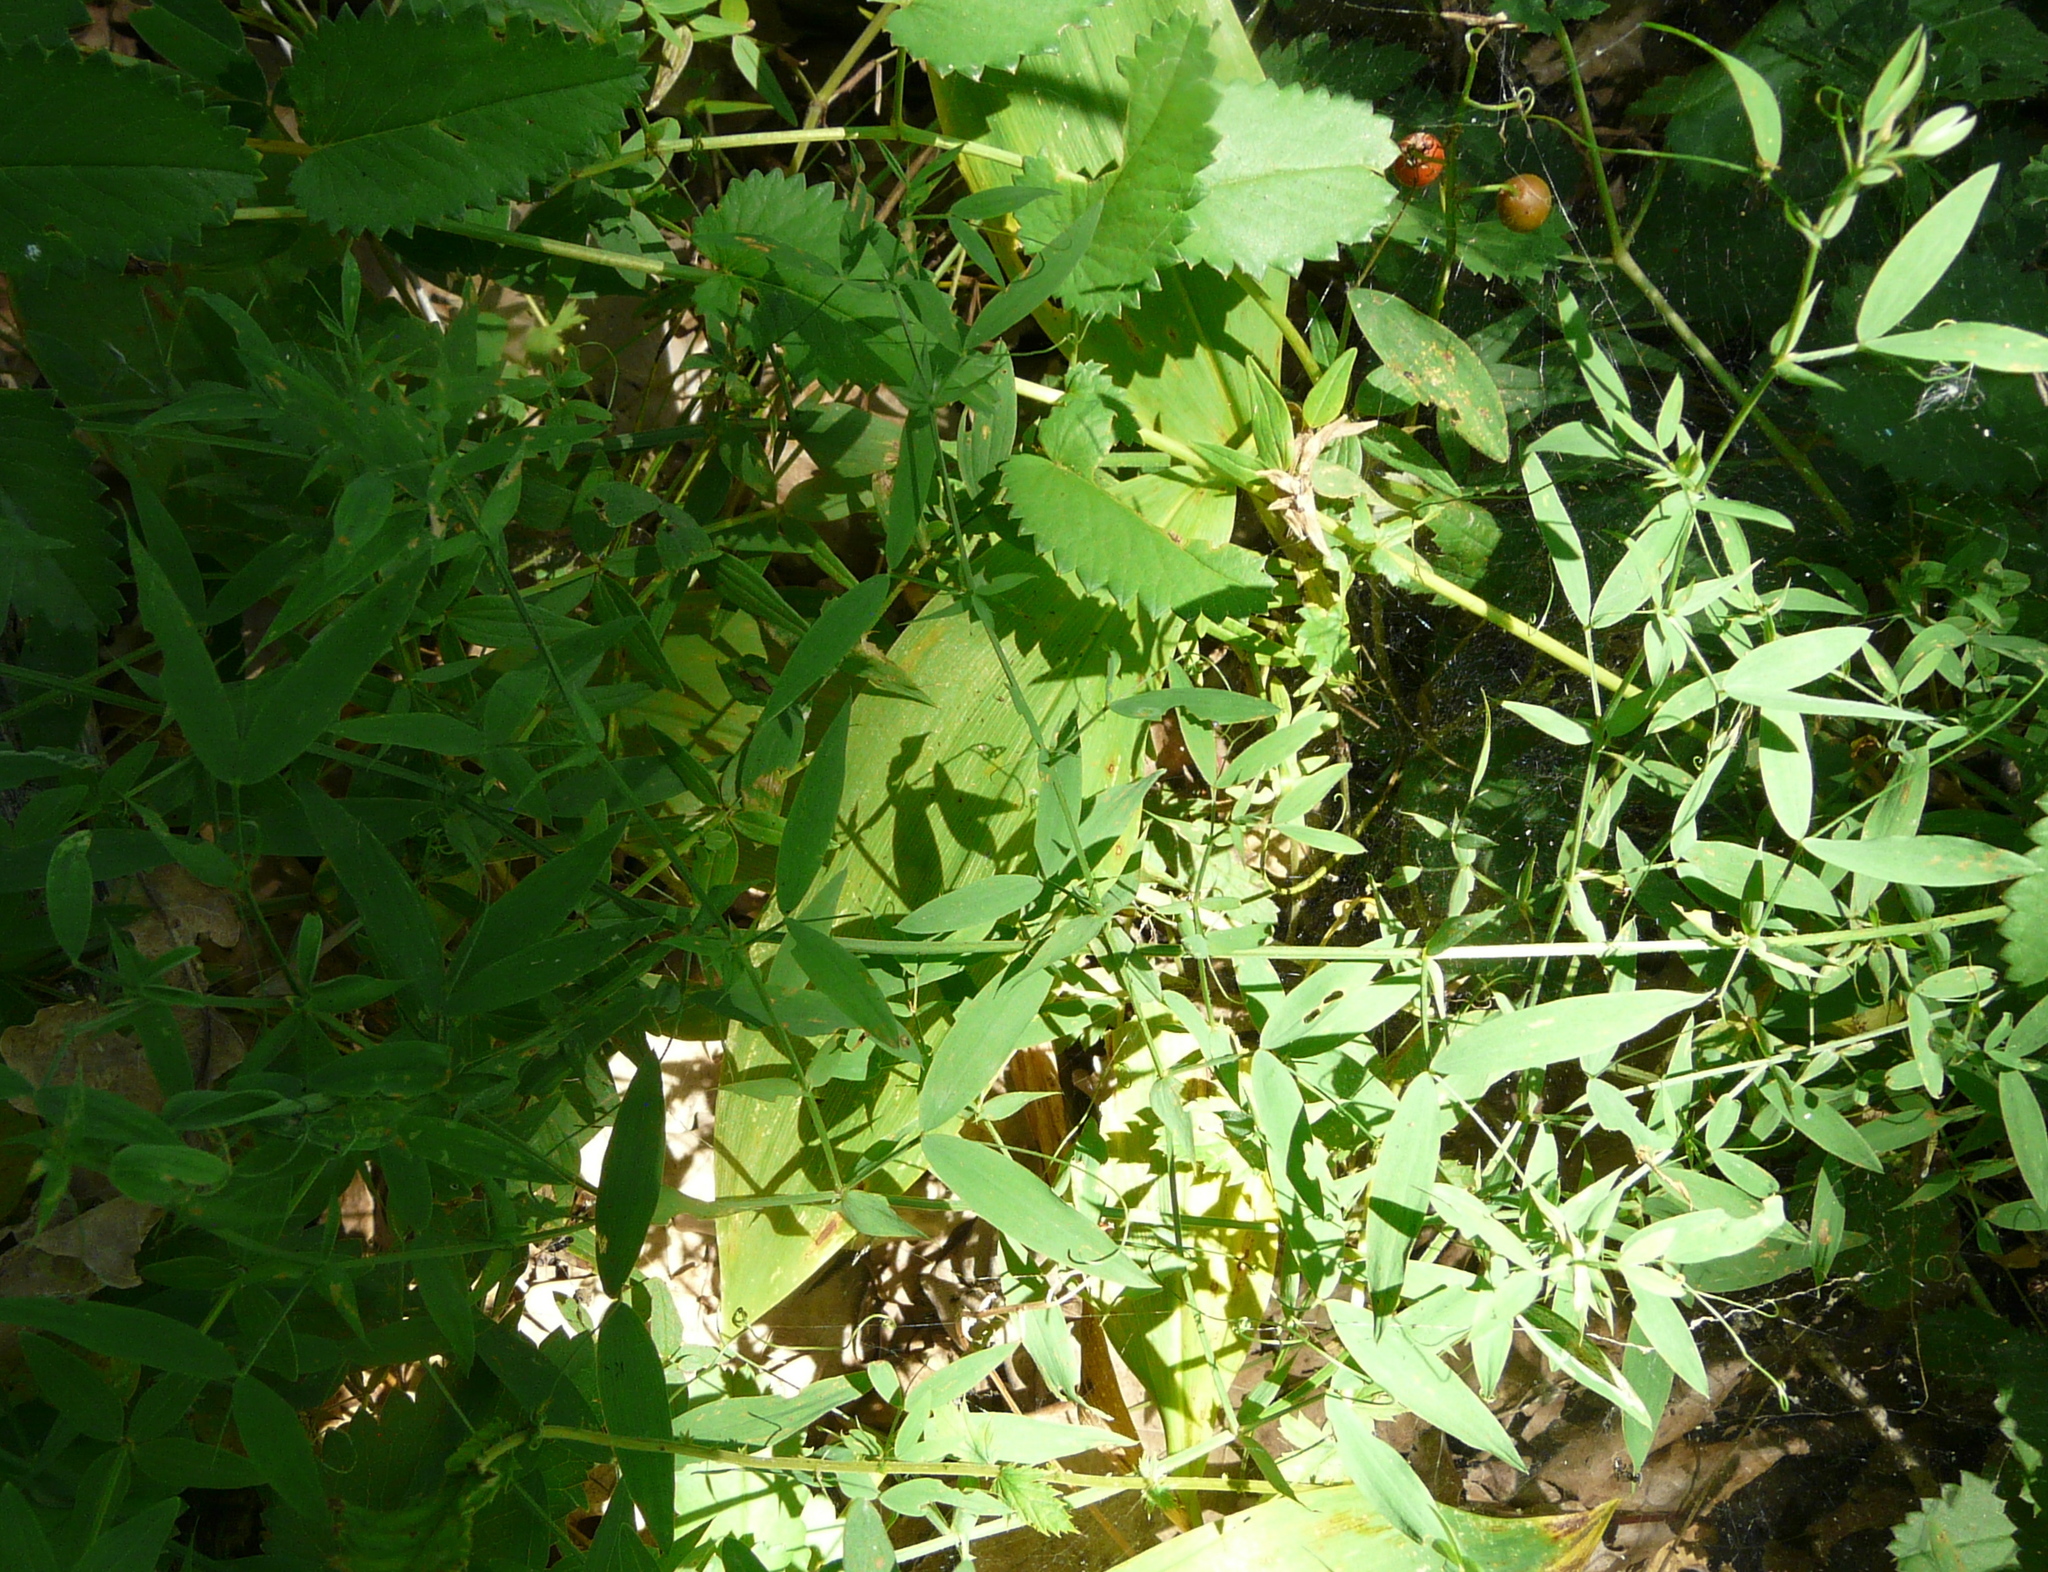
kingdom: Plantae
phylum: Tracheophyta
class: Magnoliopsida
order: Fabales
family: Fabaceae
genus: Lathyrus
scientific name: Lathyrus pratensis
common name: Meadow vetchling
